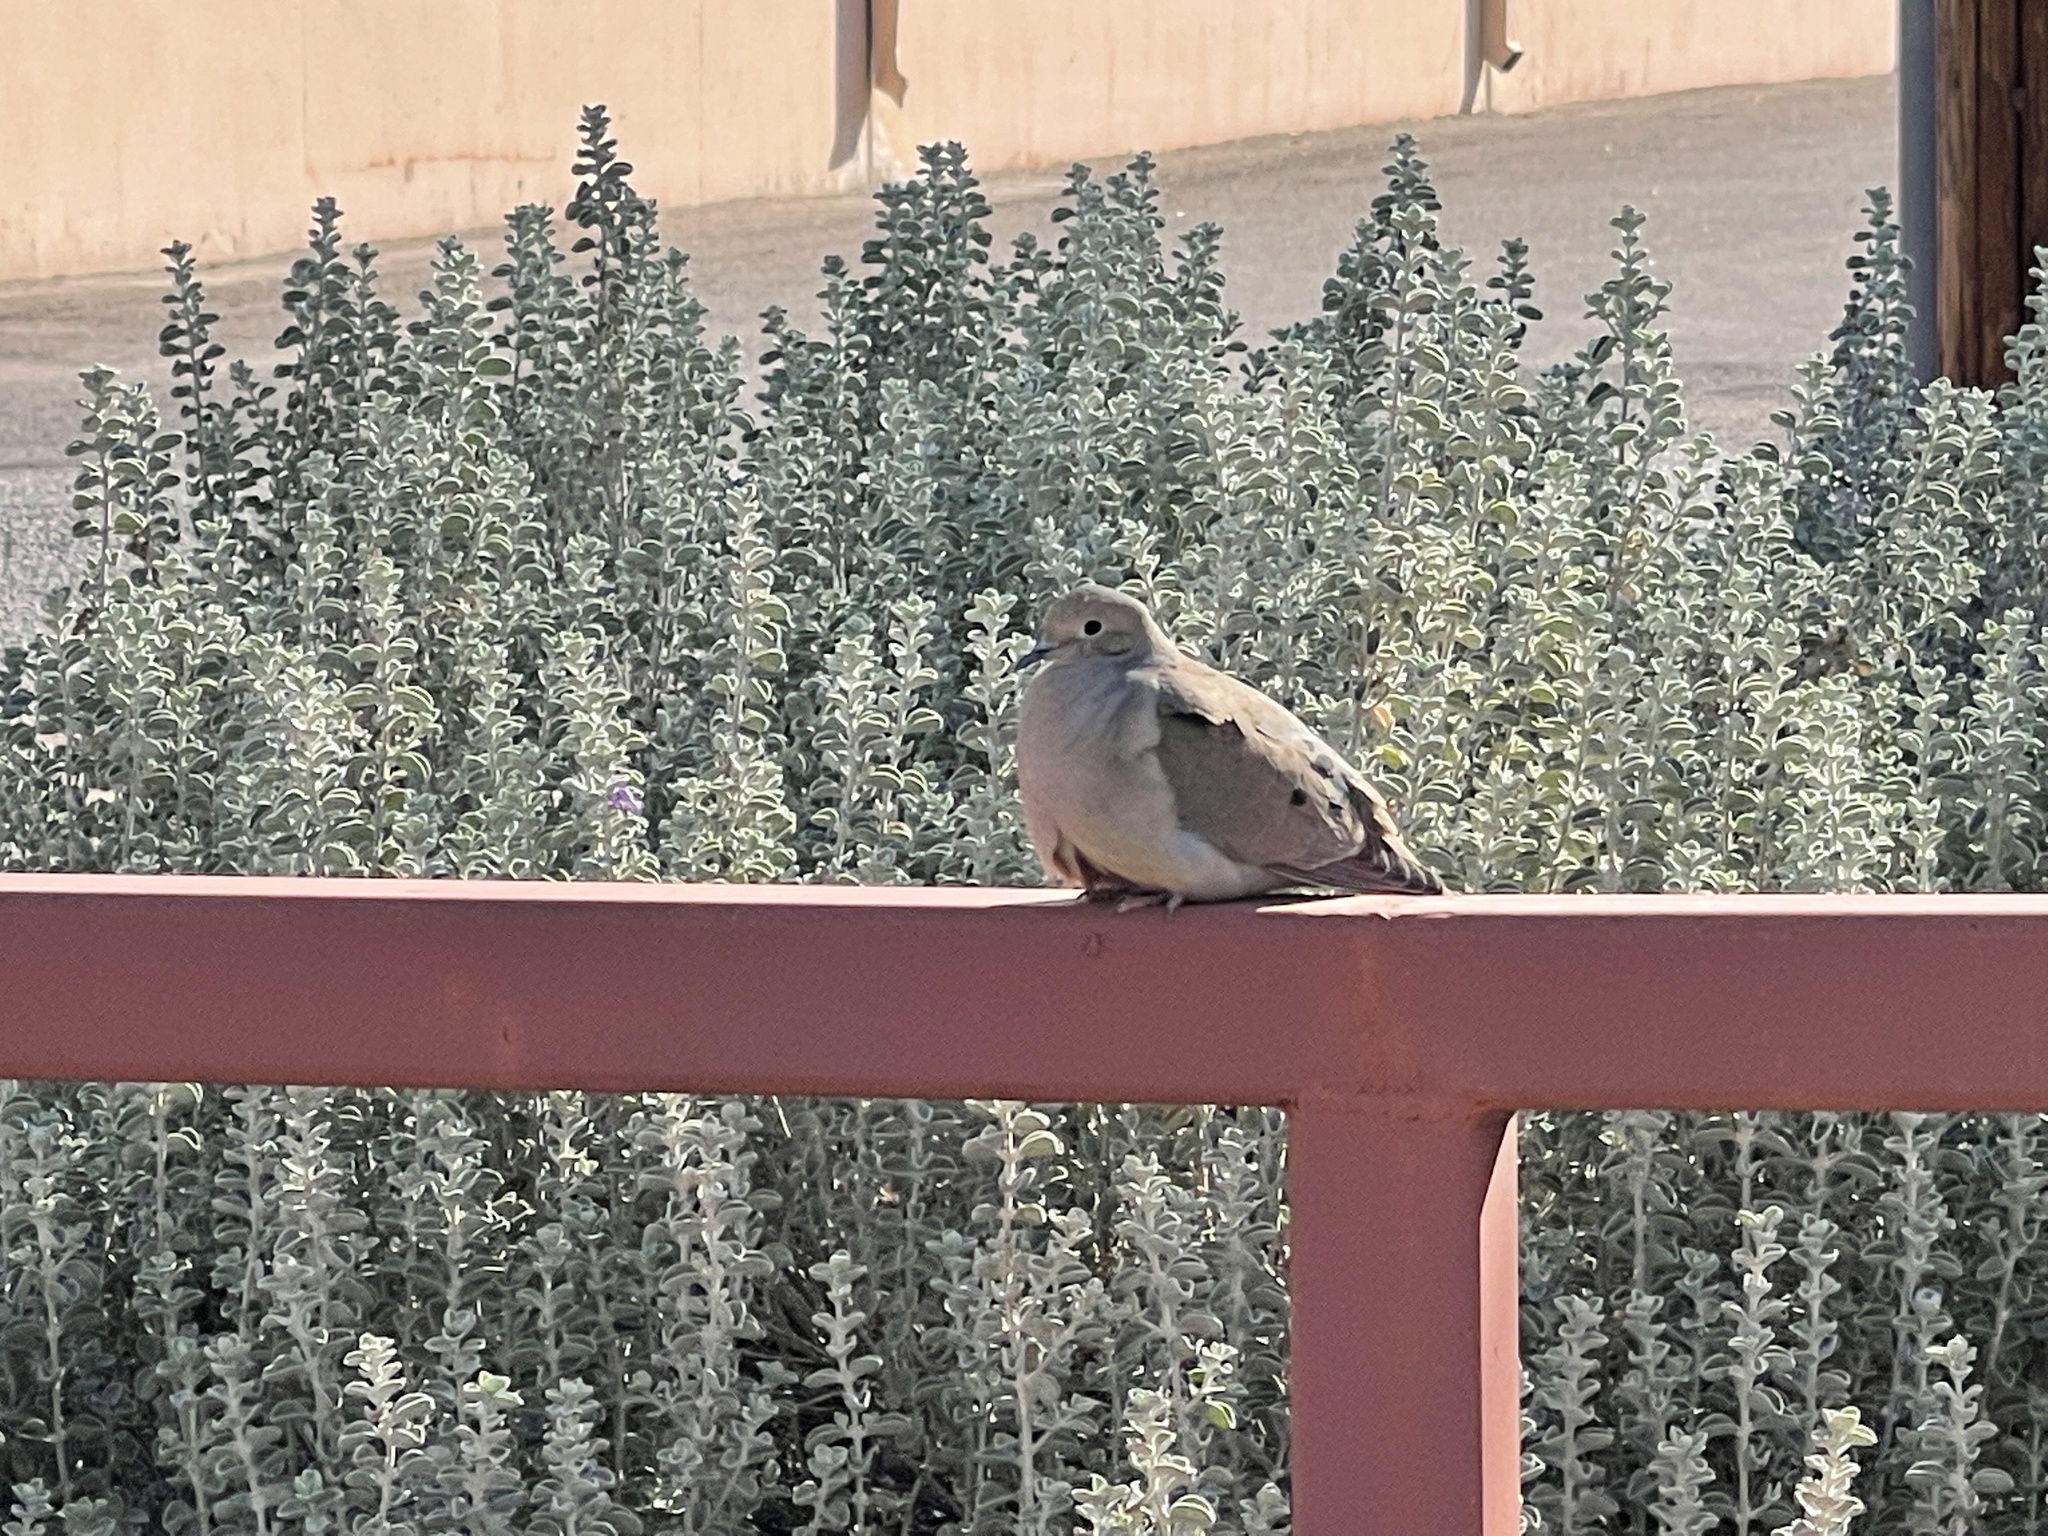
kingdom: Animalia
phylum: Chordata
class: Aves
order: Columbiformes
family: Columbidae
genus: Zenaida
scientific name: Zenaida macroura
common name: Mourning dove
